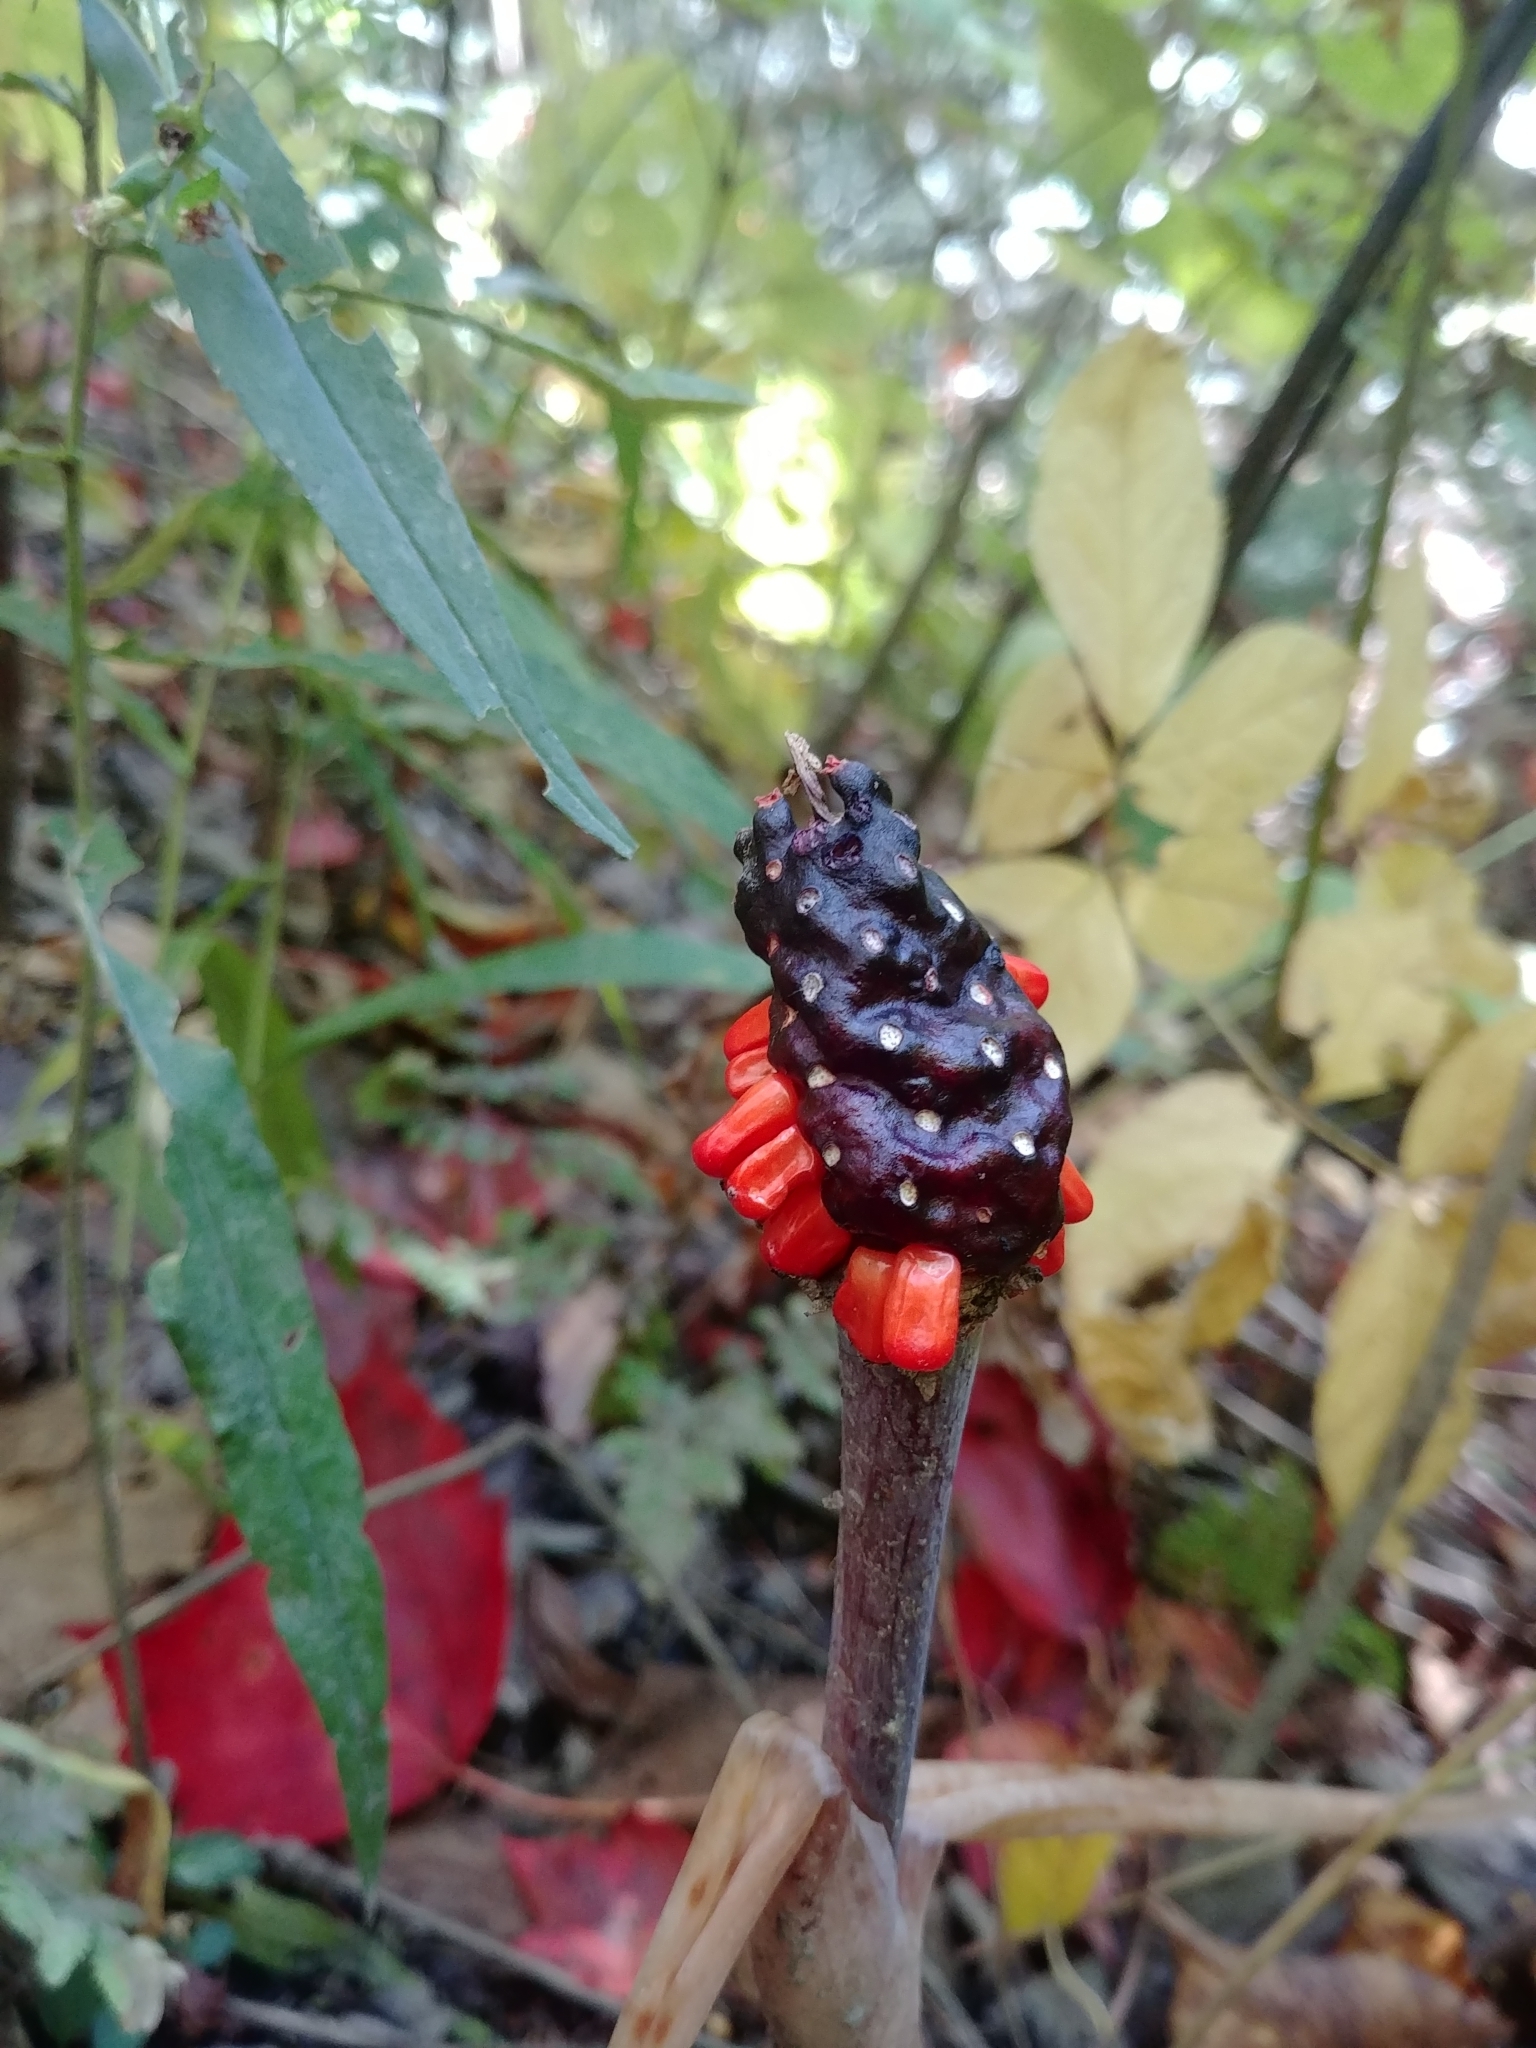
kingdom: Plantae
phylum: Tracheophyta
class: Liliopsida
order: Alismatales
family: Araceae
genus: Arisaema
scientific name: Arisaema triphyllum
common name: Jack-in-the-pulpit
